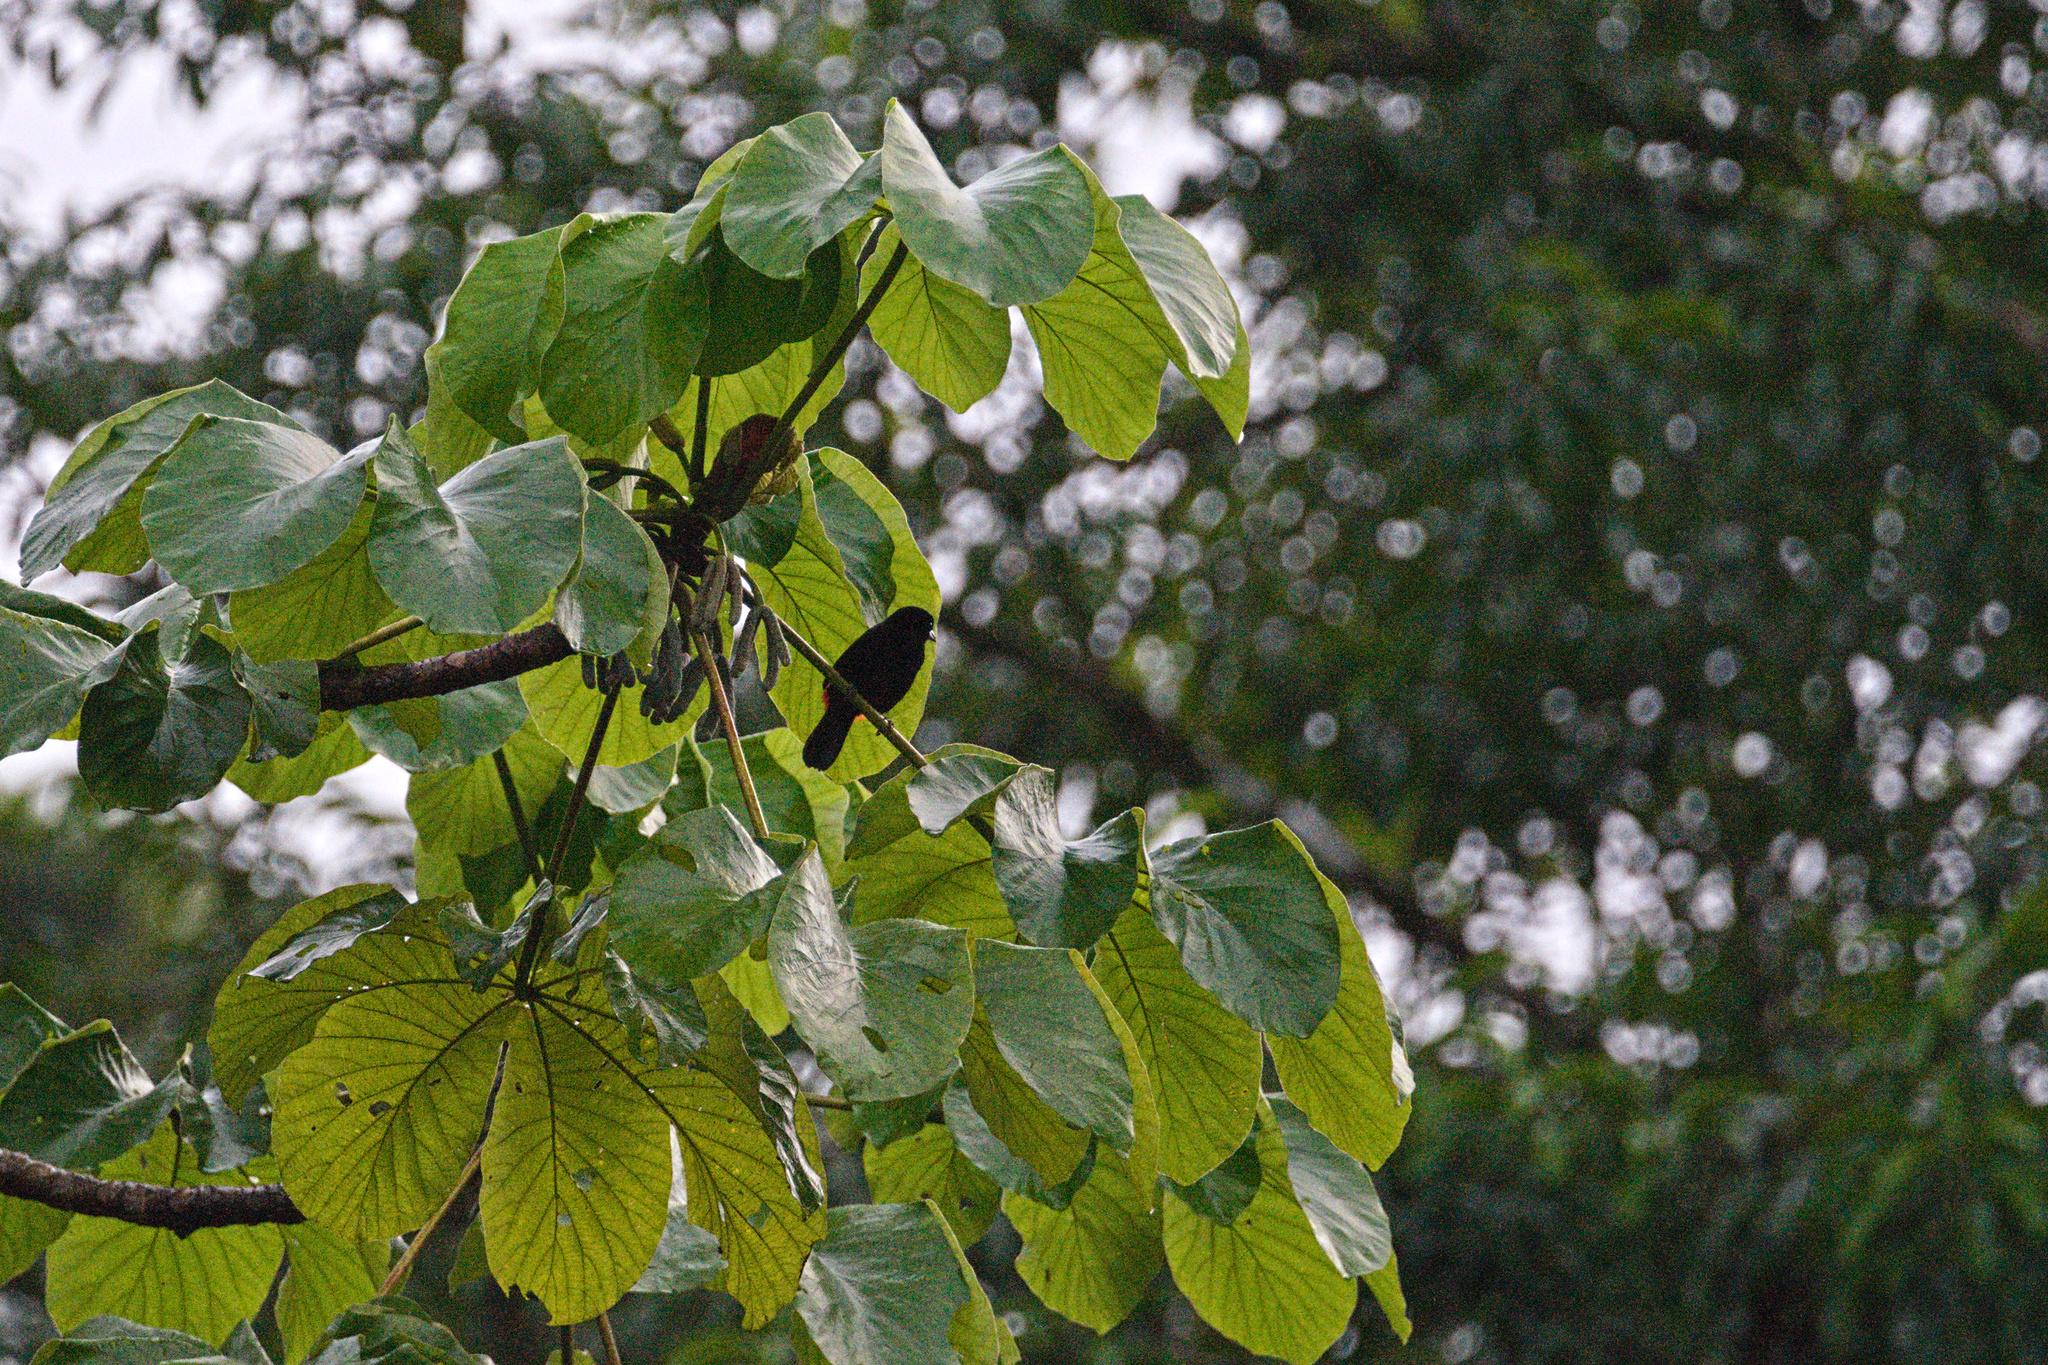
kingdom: Animalia
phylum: Chordata
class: Aves
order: Passeriformes
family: Thraupidae
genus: Ramphocelus
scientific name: Ramphocelus passerinii
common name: Passerini's tanager
